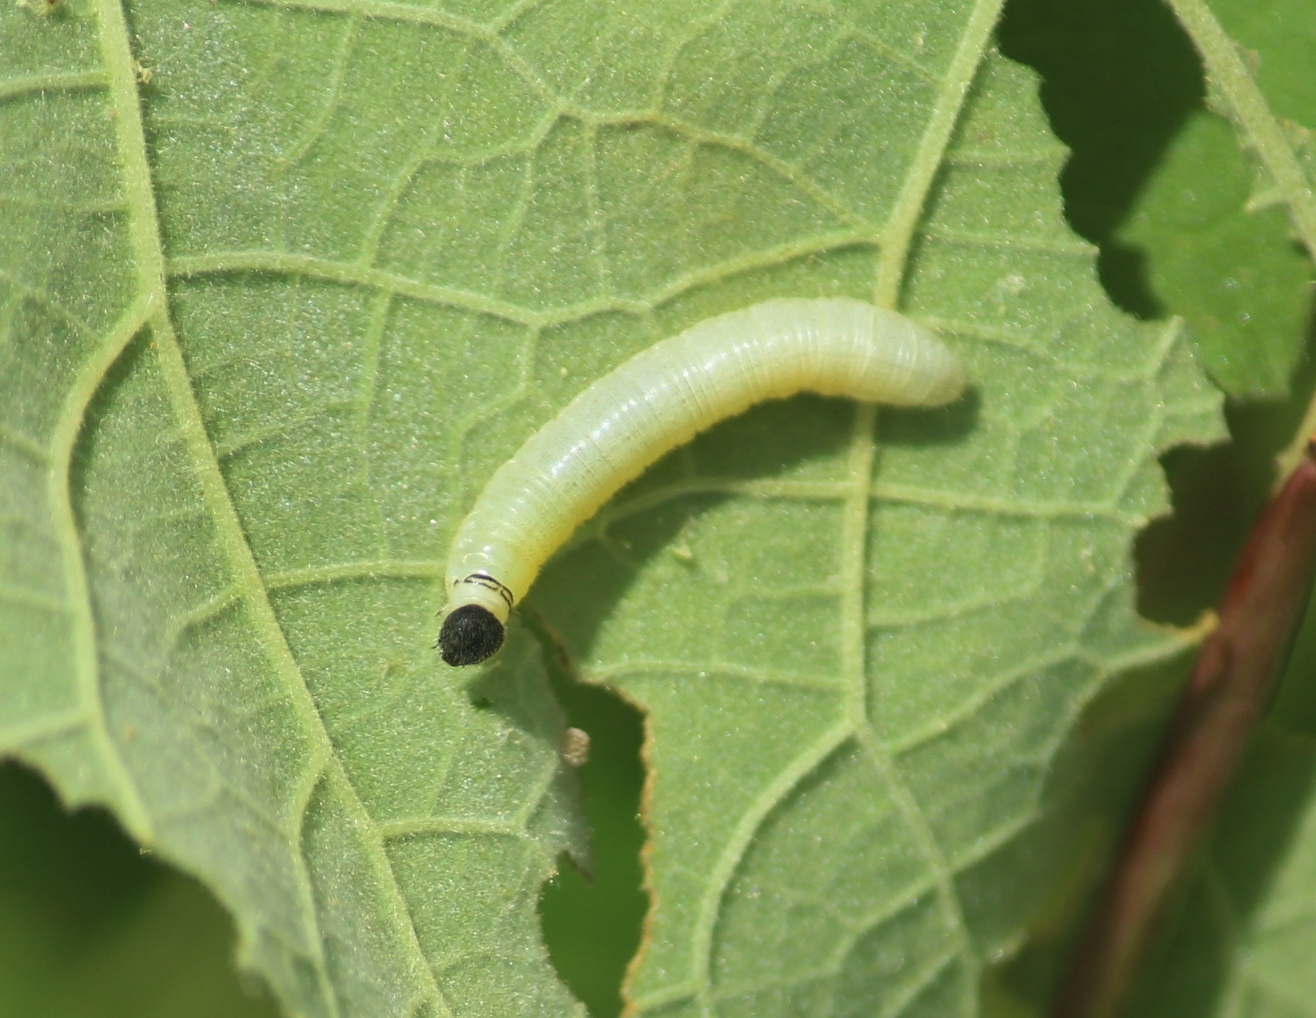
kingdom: Animalia
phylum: Arthropoda
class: Insecta
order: Lepidoptera
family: Hesperiidae
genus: Gomalia
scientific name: Gomalia elma
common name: Green-marbled skipper
